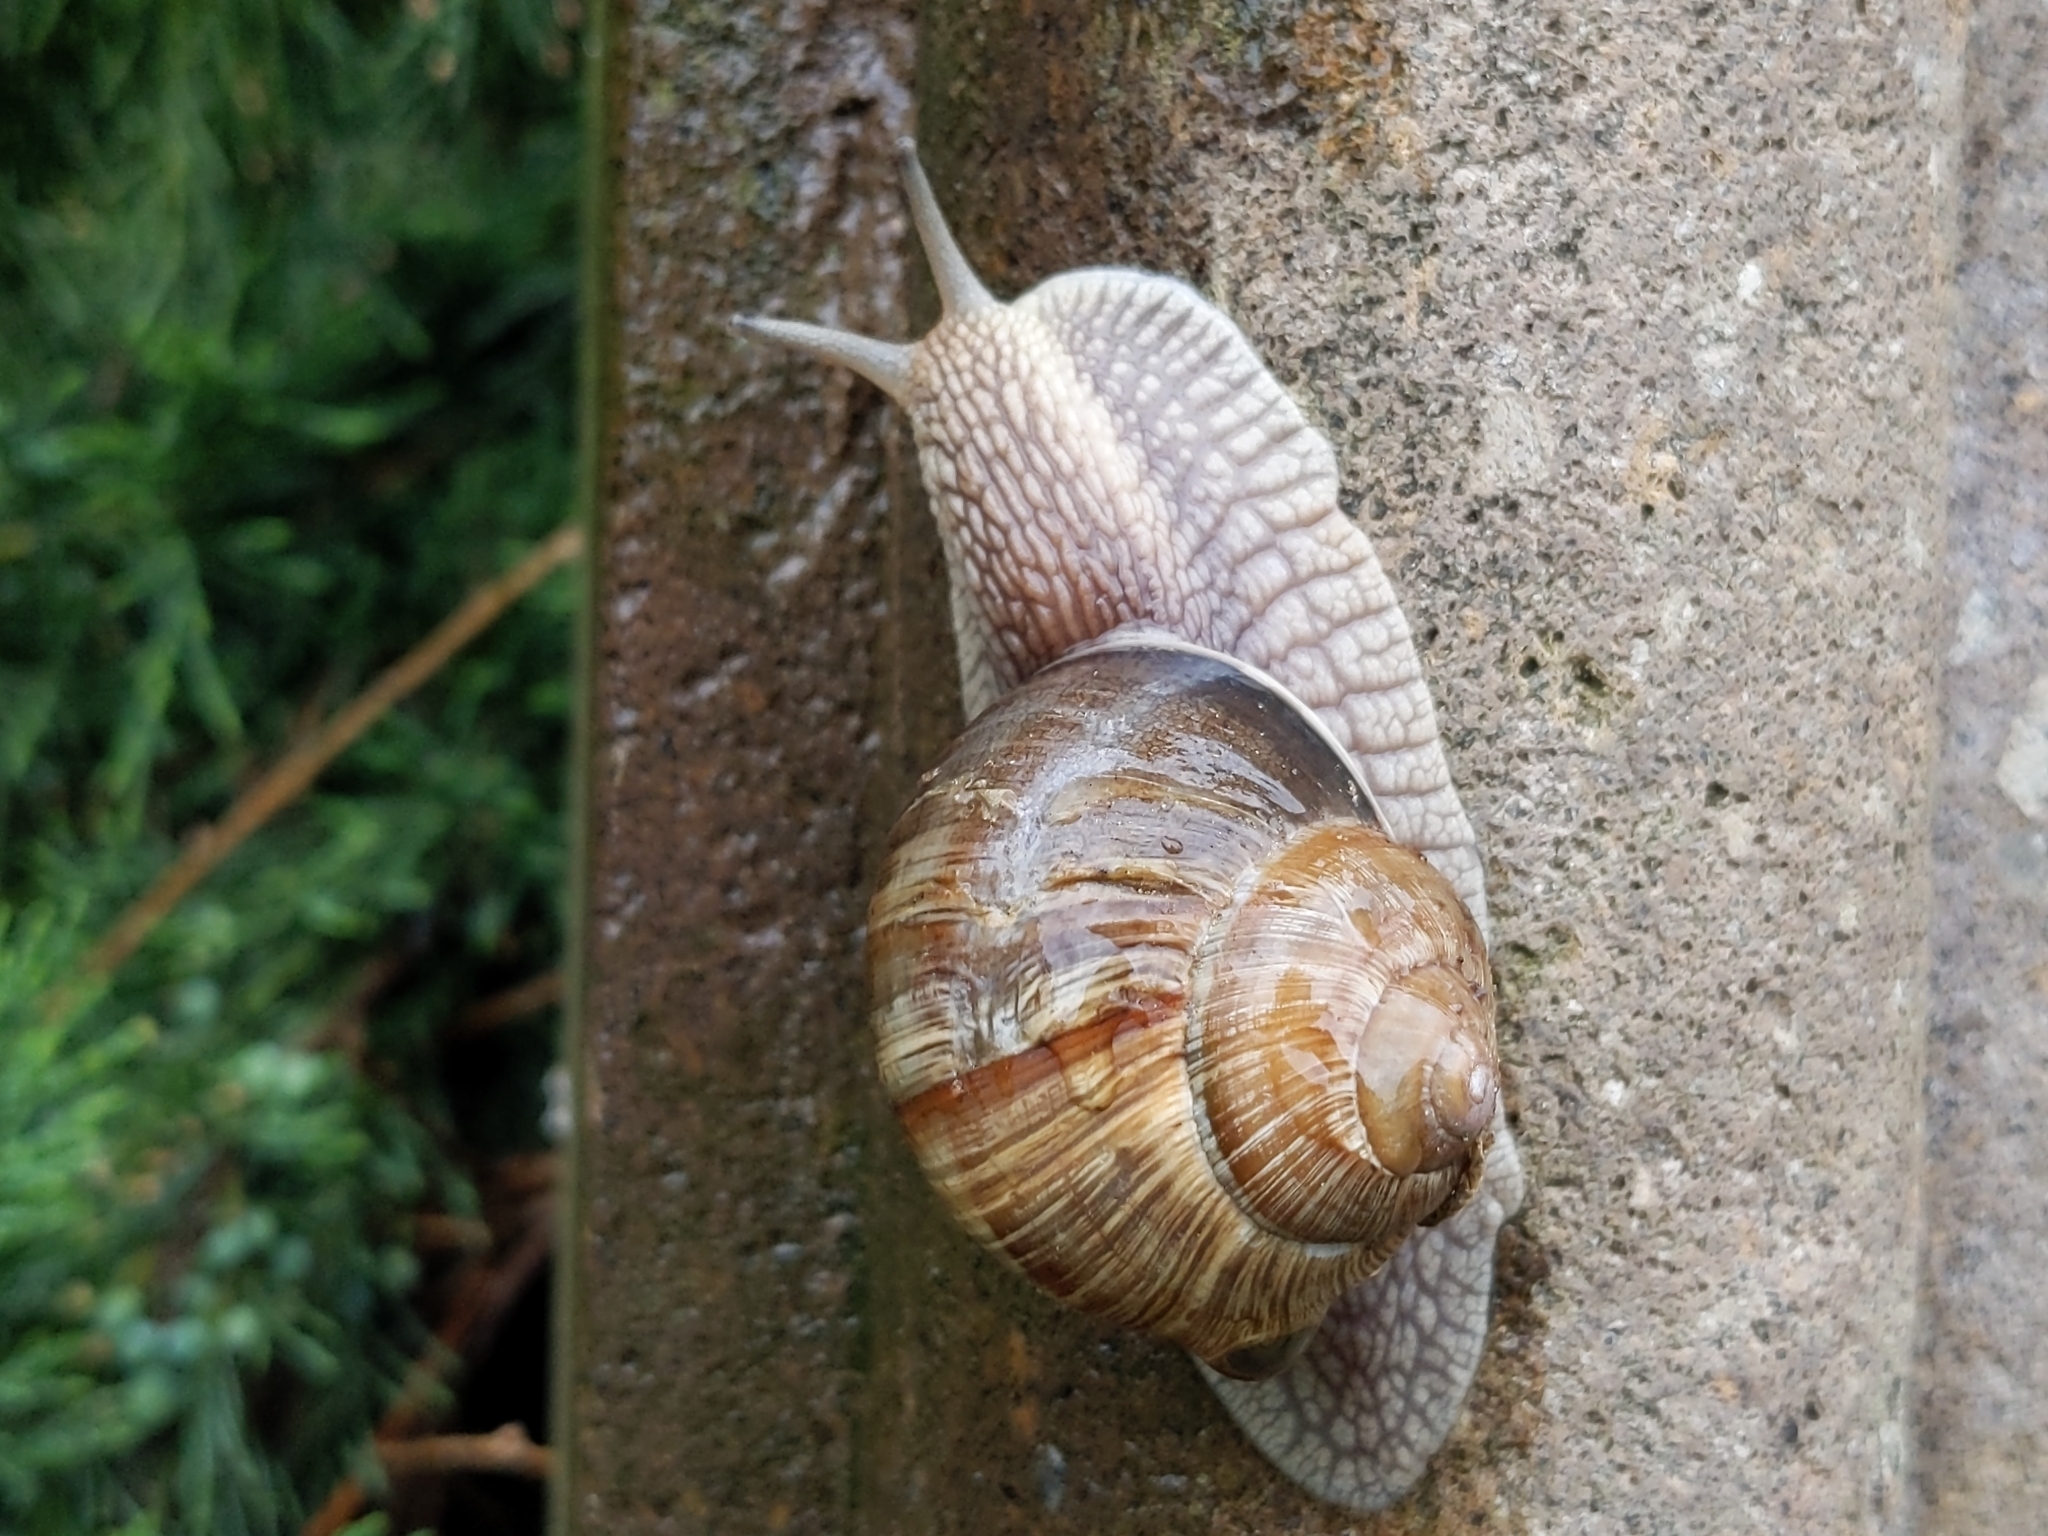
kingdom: Animalia
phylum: Mollusca
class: Gastropoda
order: Stylommatophora
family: Helicidae
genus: Helix
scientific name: Helix pomatia
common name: Roman snail
